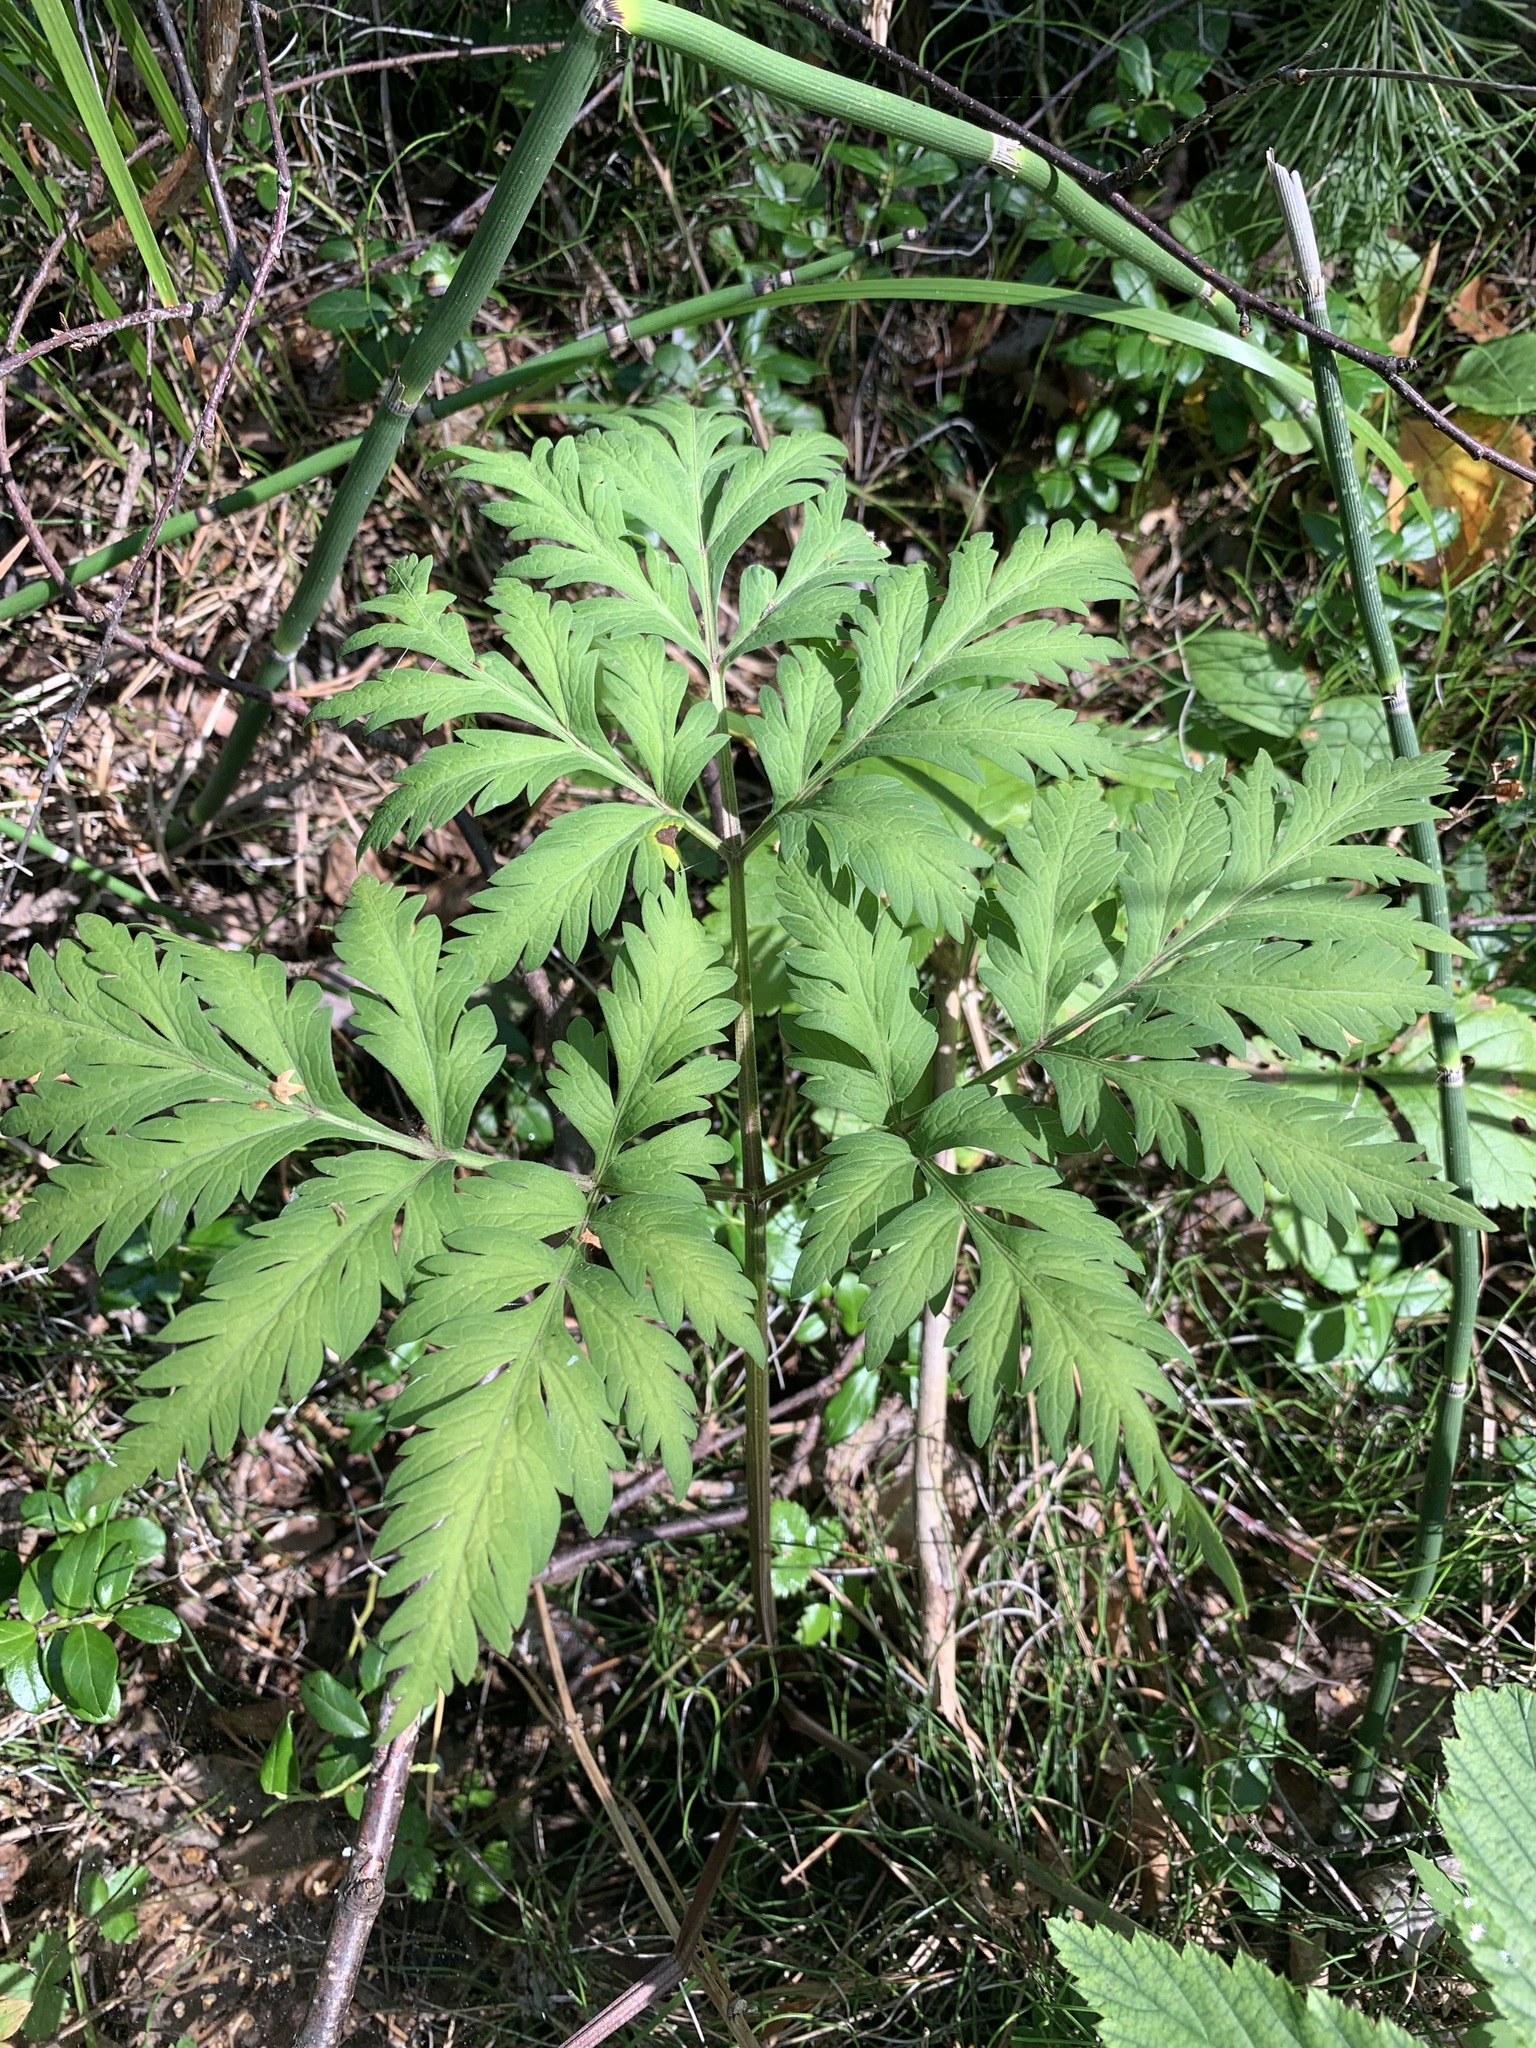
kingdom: Plantae
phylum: Tracheophyta
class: Magnoliopsida
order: Apiales
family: Apiaceae
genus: Pleurospermum
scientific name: Pleurospermum uralense
